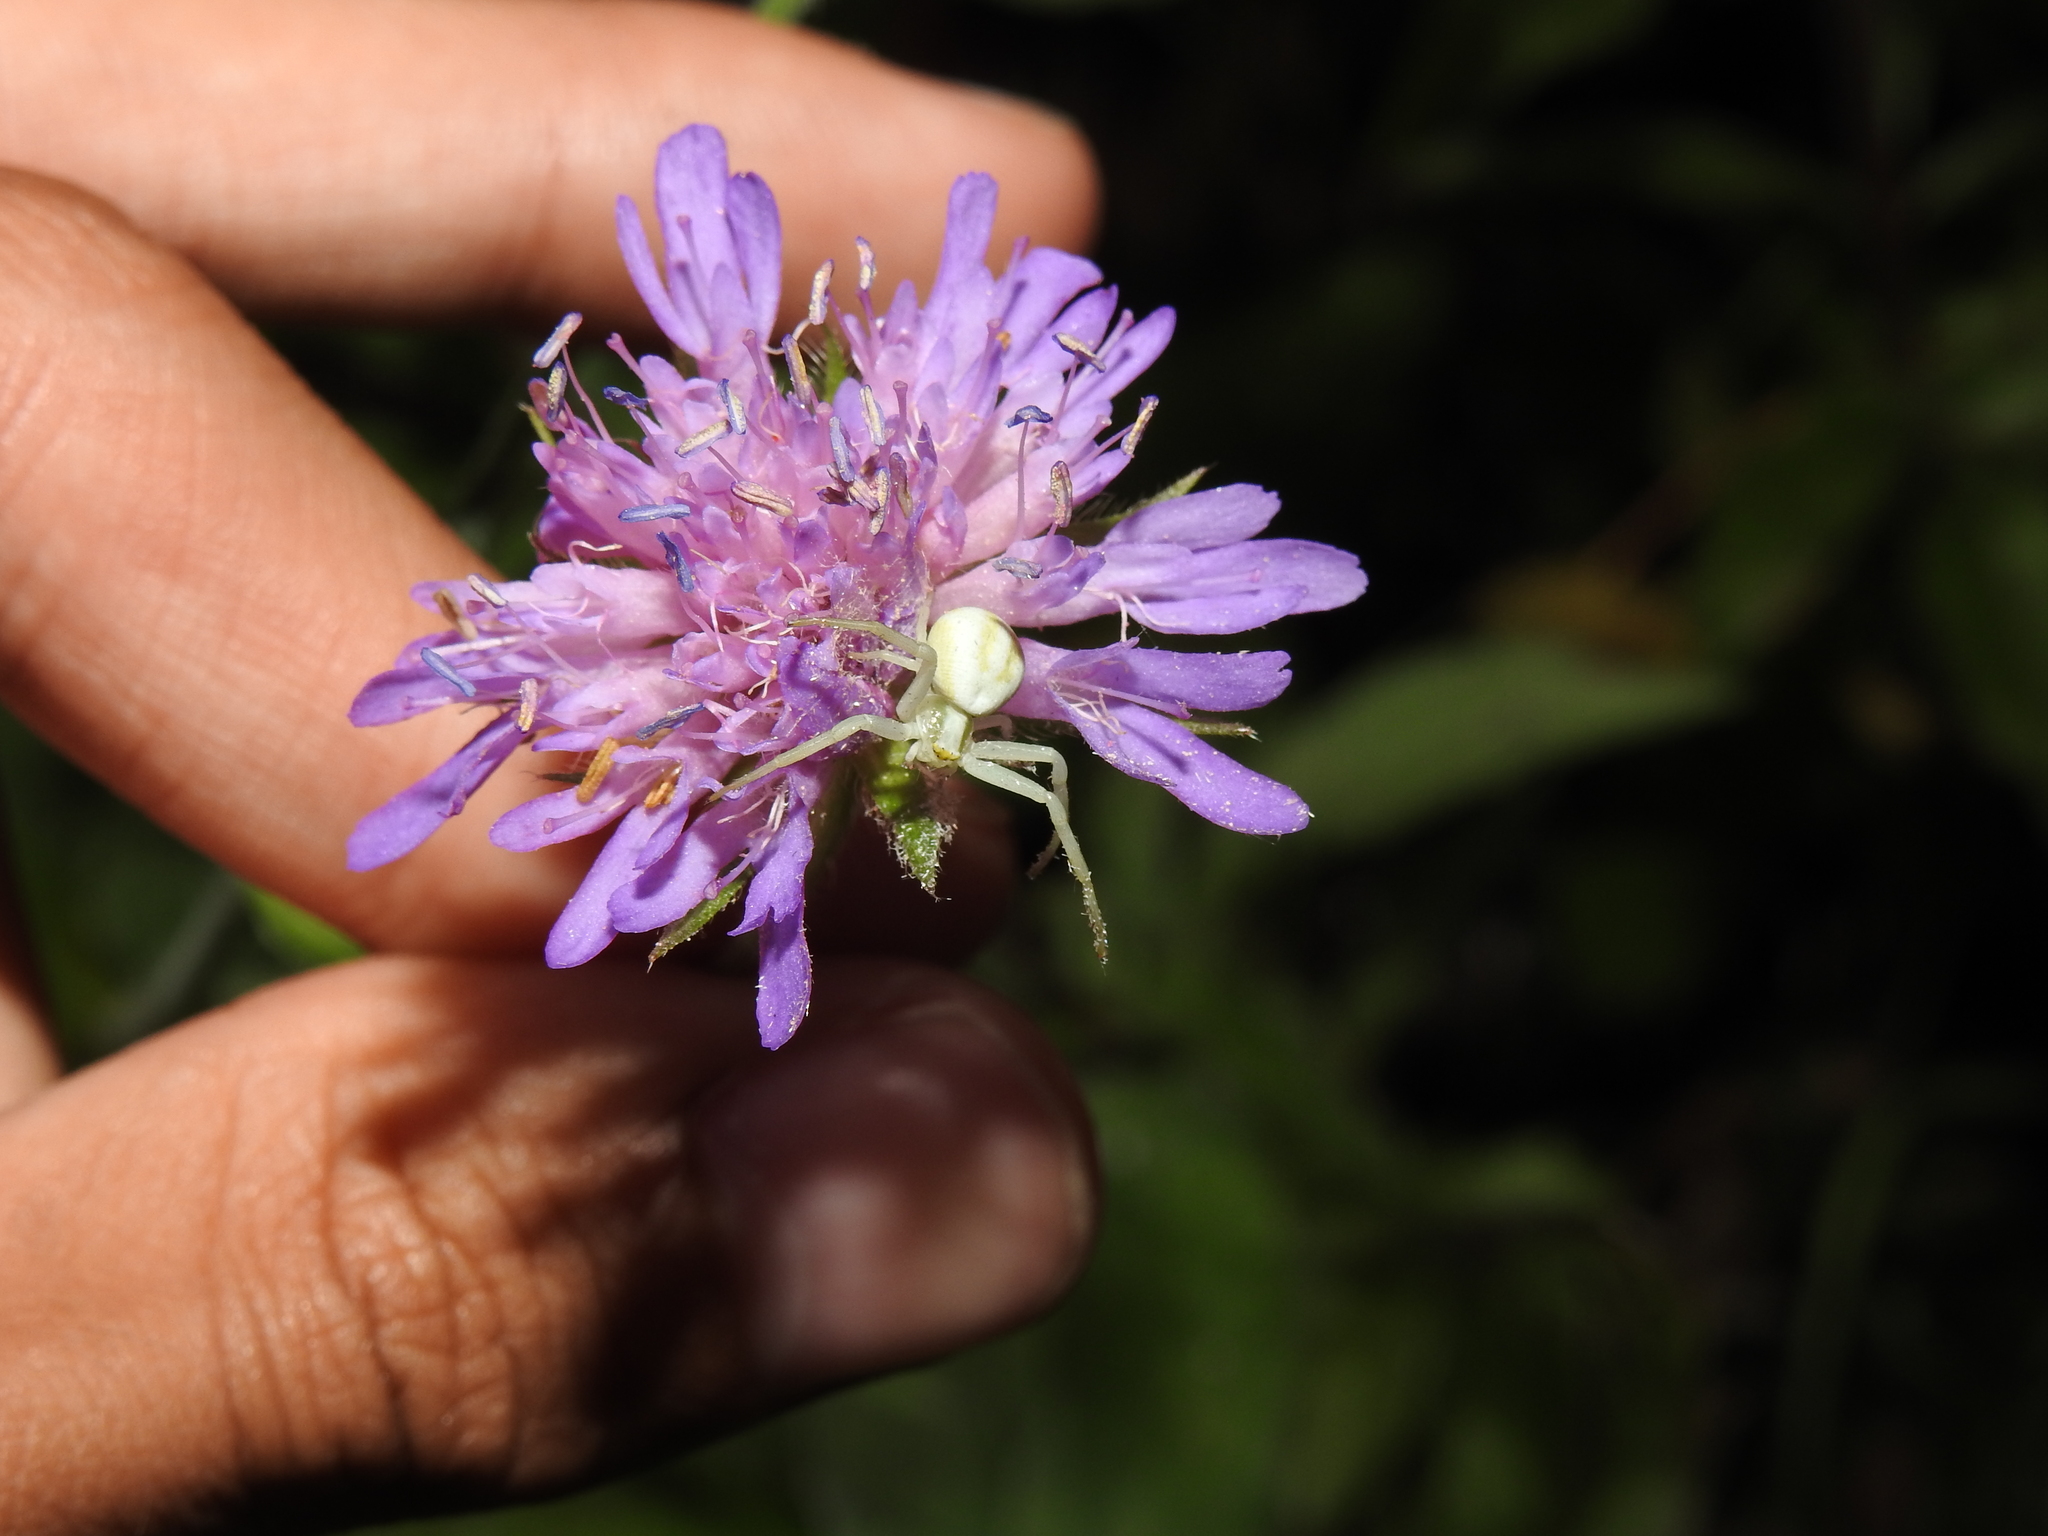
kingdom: Animalia
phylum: Arthropoda
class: Arachnida
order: Araneae
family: Thomisidae
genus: Misumena
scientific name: Misumena vatia
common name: Goldenrod crab spider
